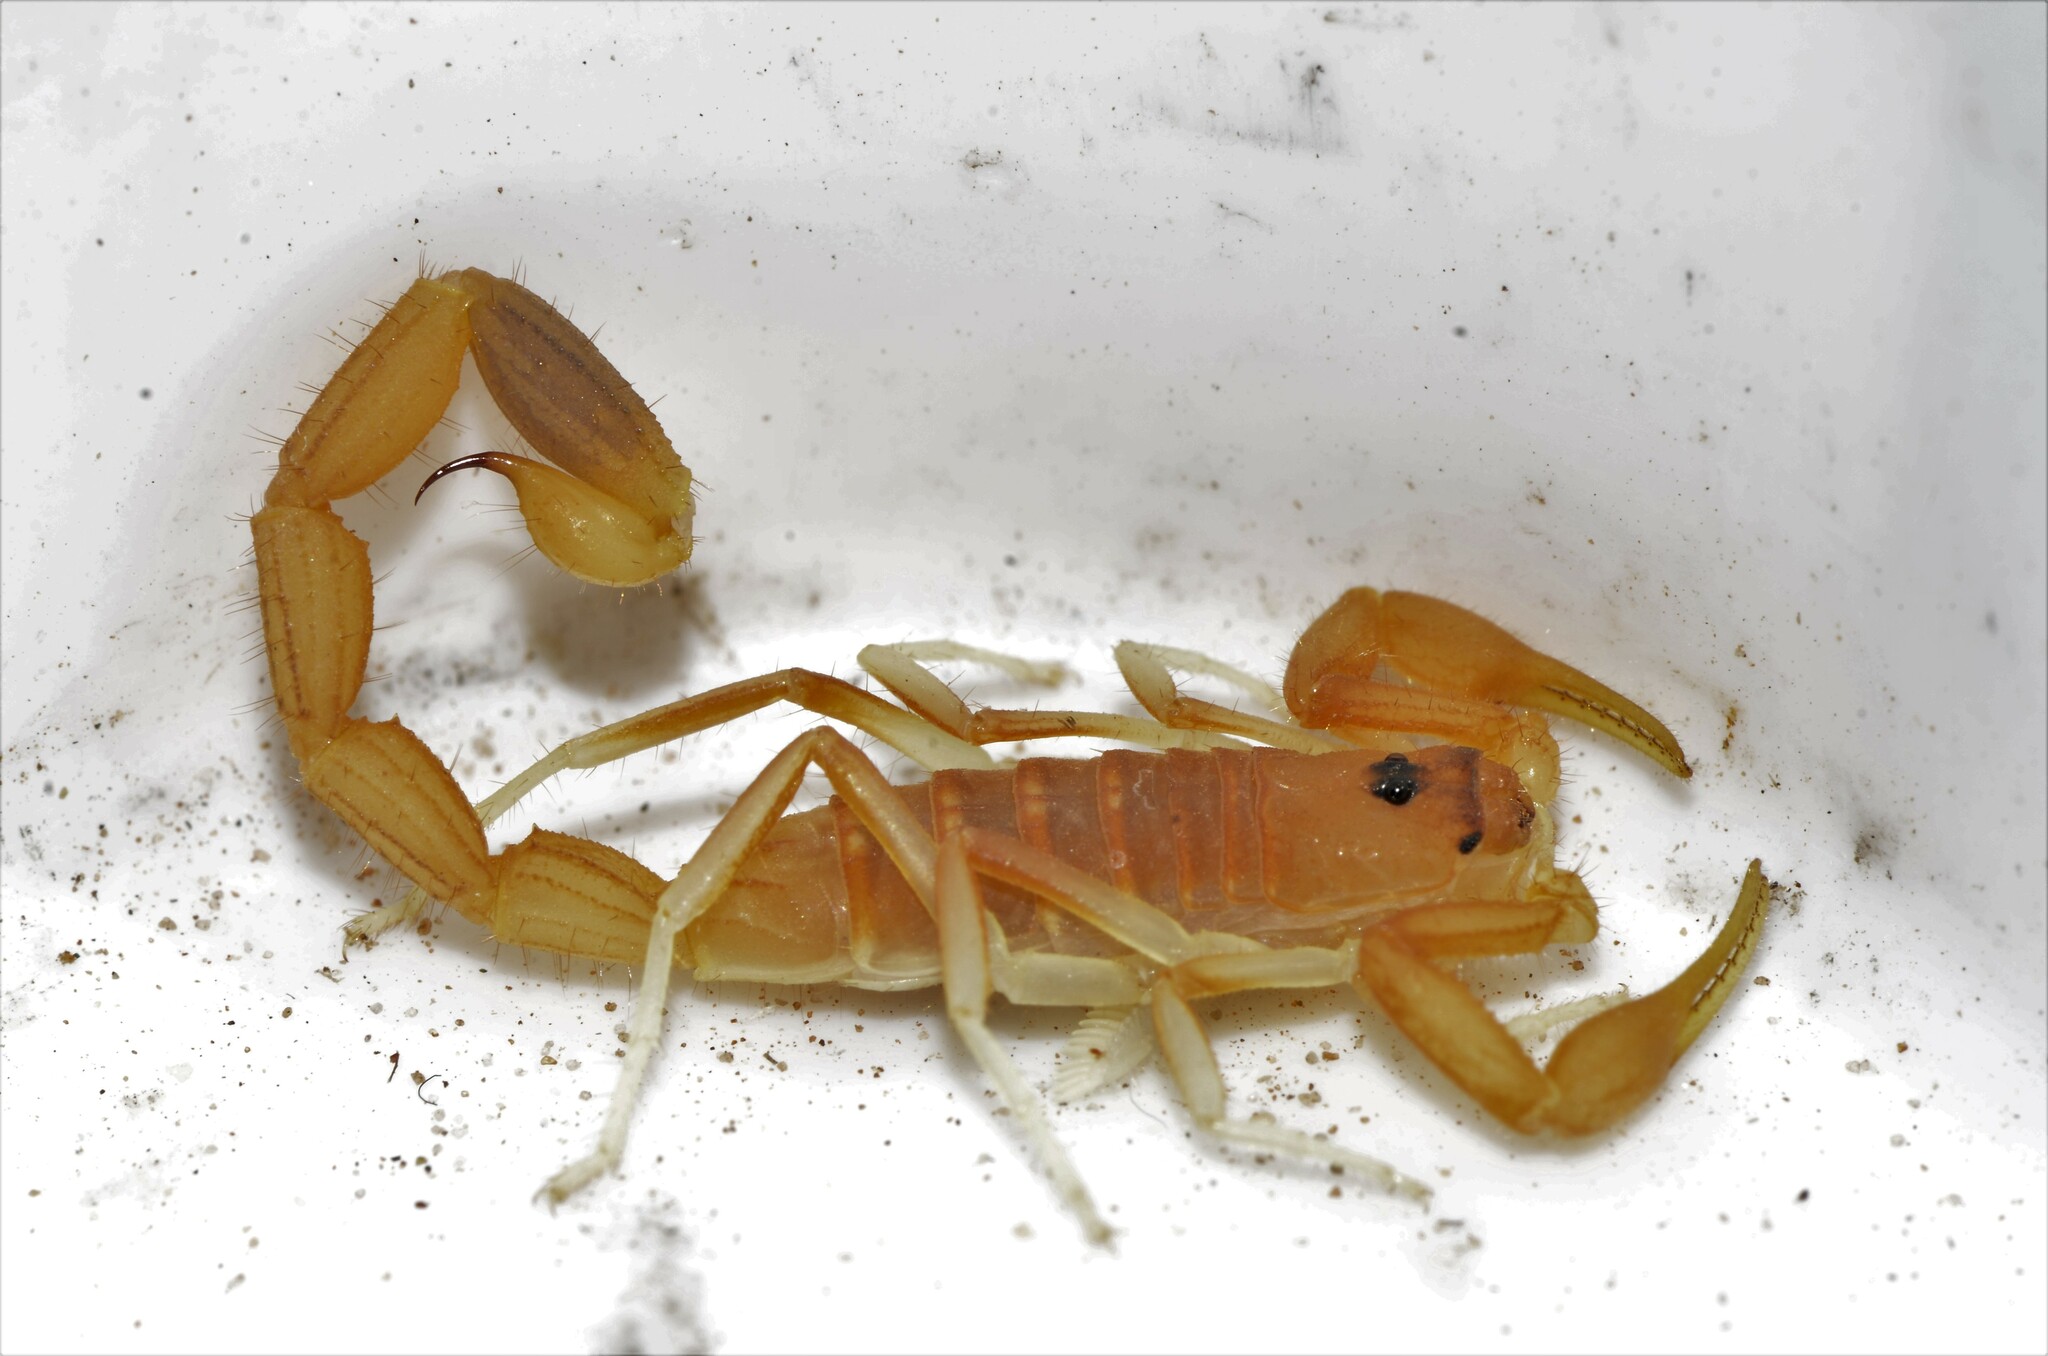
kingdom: Animalia
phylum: Arthropoda
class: Arachnida
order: Scorpiones
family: Buthidae
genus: Uroplectes
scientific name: Uroplectes gracilior
